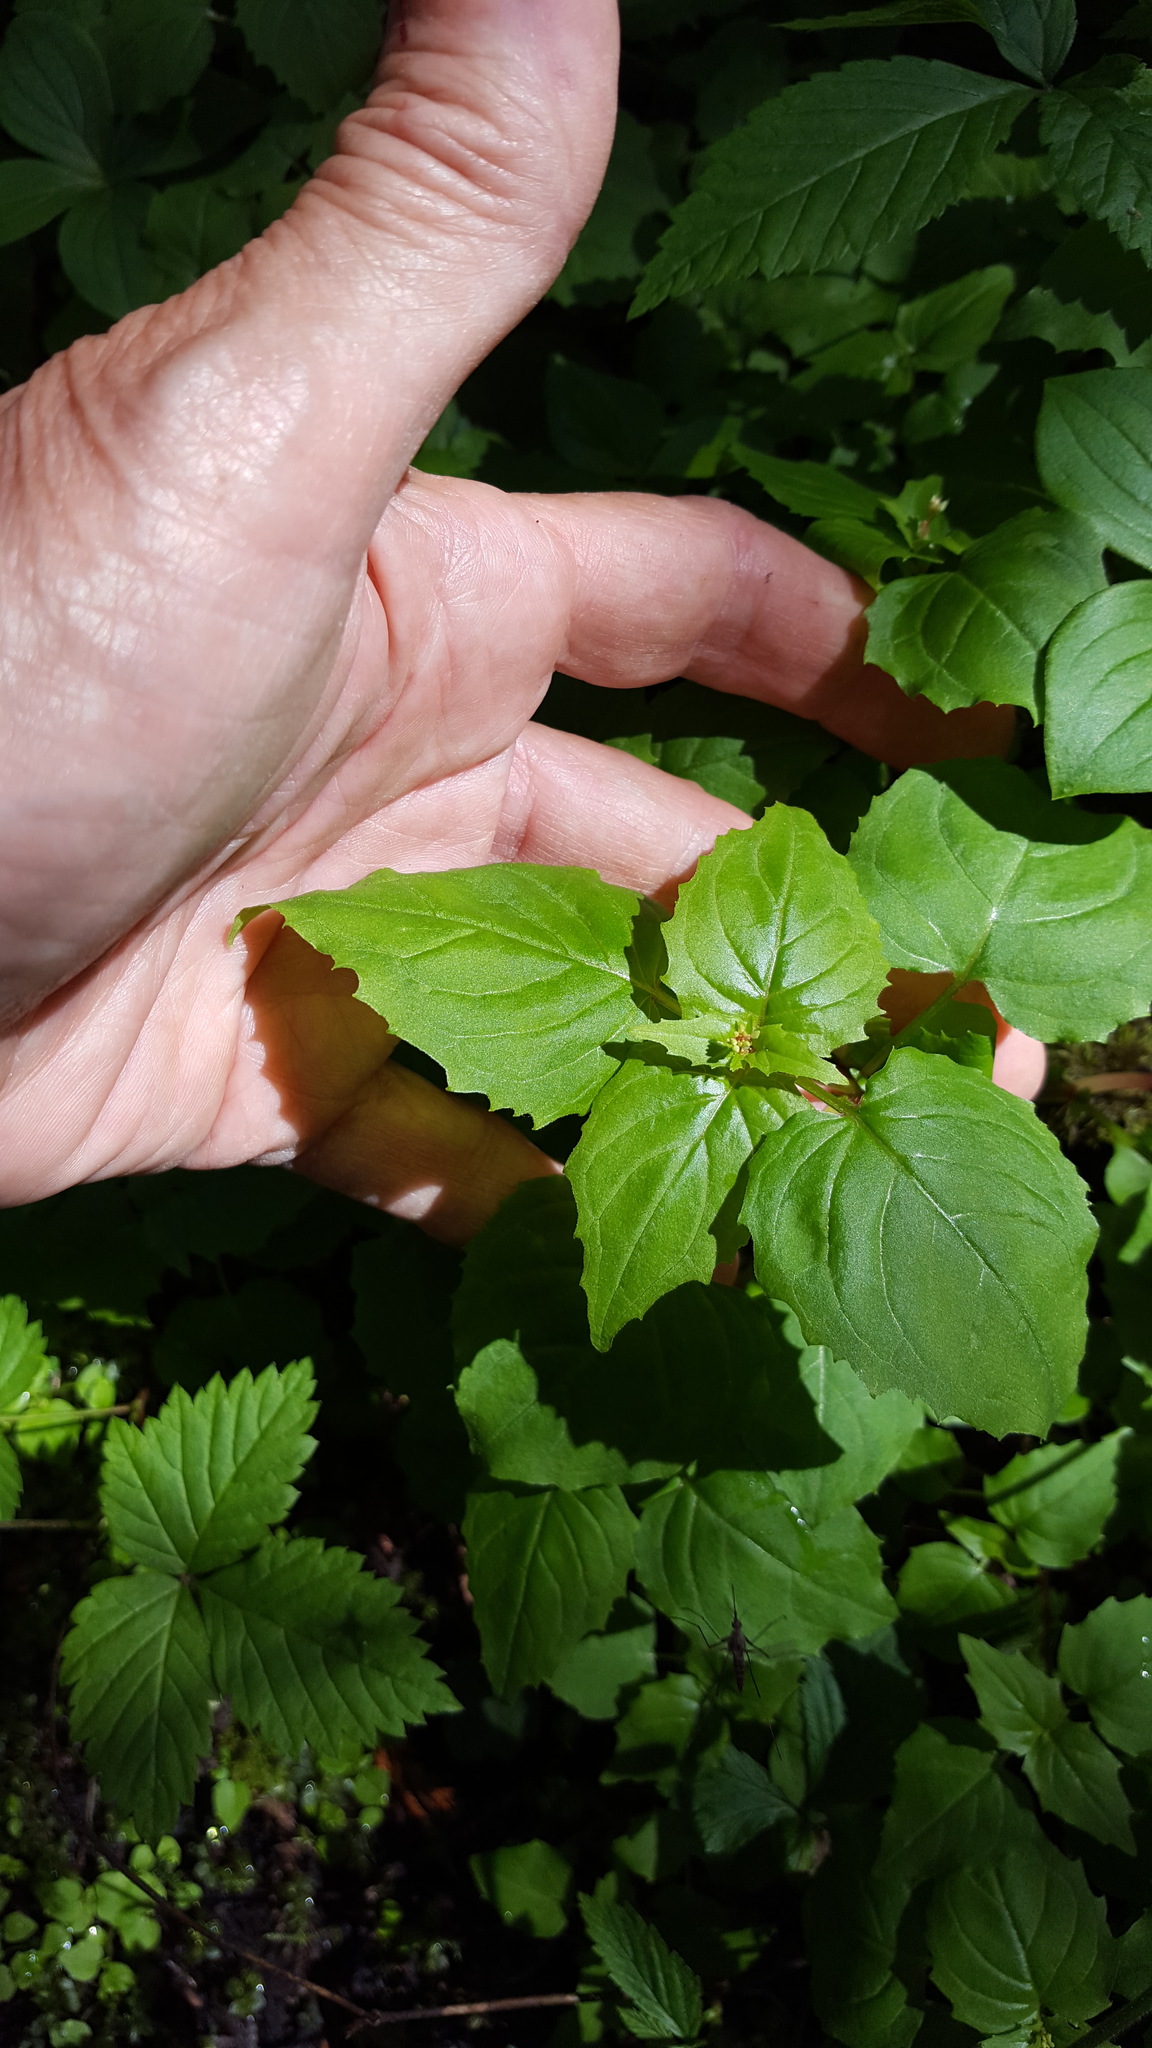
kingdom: Plantae
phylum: Tracheophyta
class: Magnoliopsida
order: Myrtales
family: Onagraceae
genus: Circaea
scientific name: Circaea alpina
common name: Alpine enchanter's-nightshade
